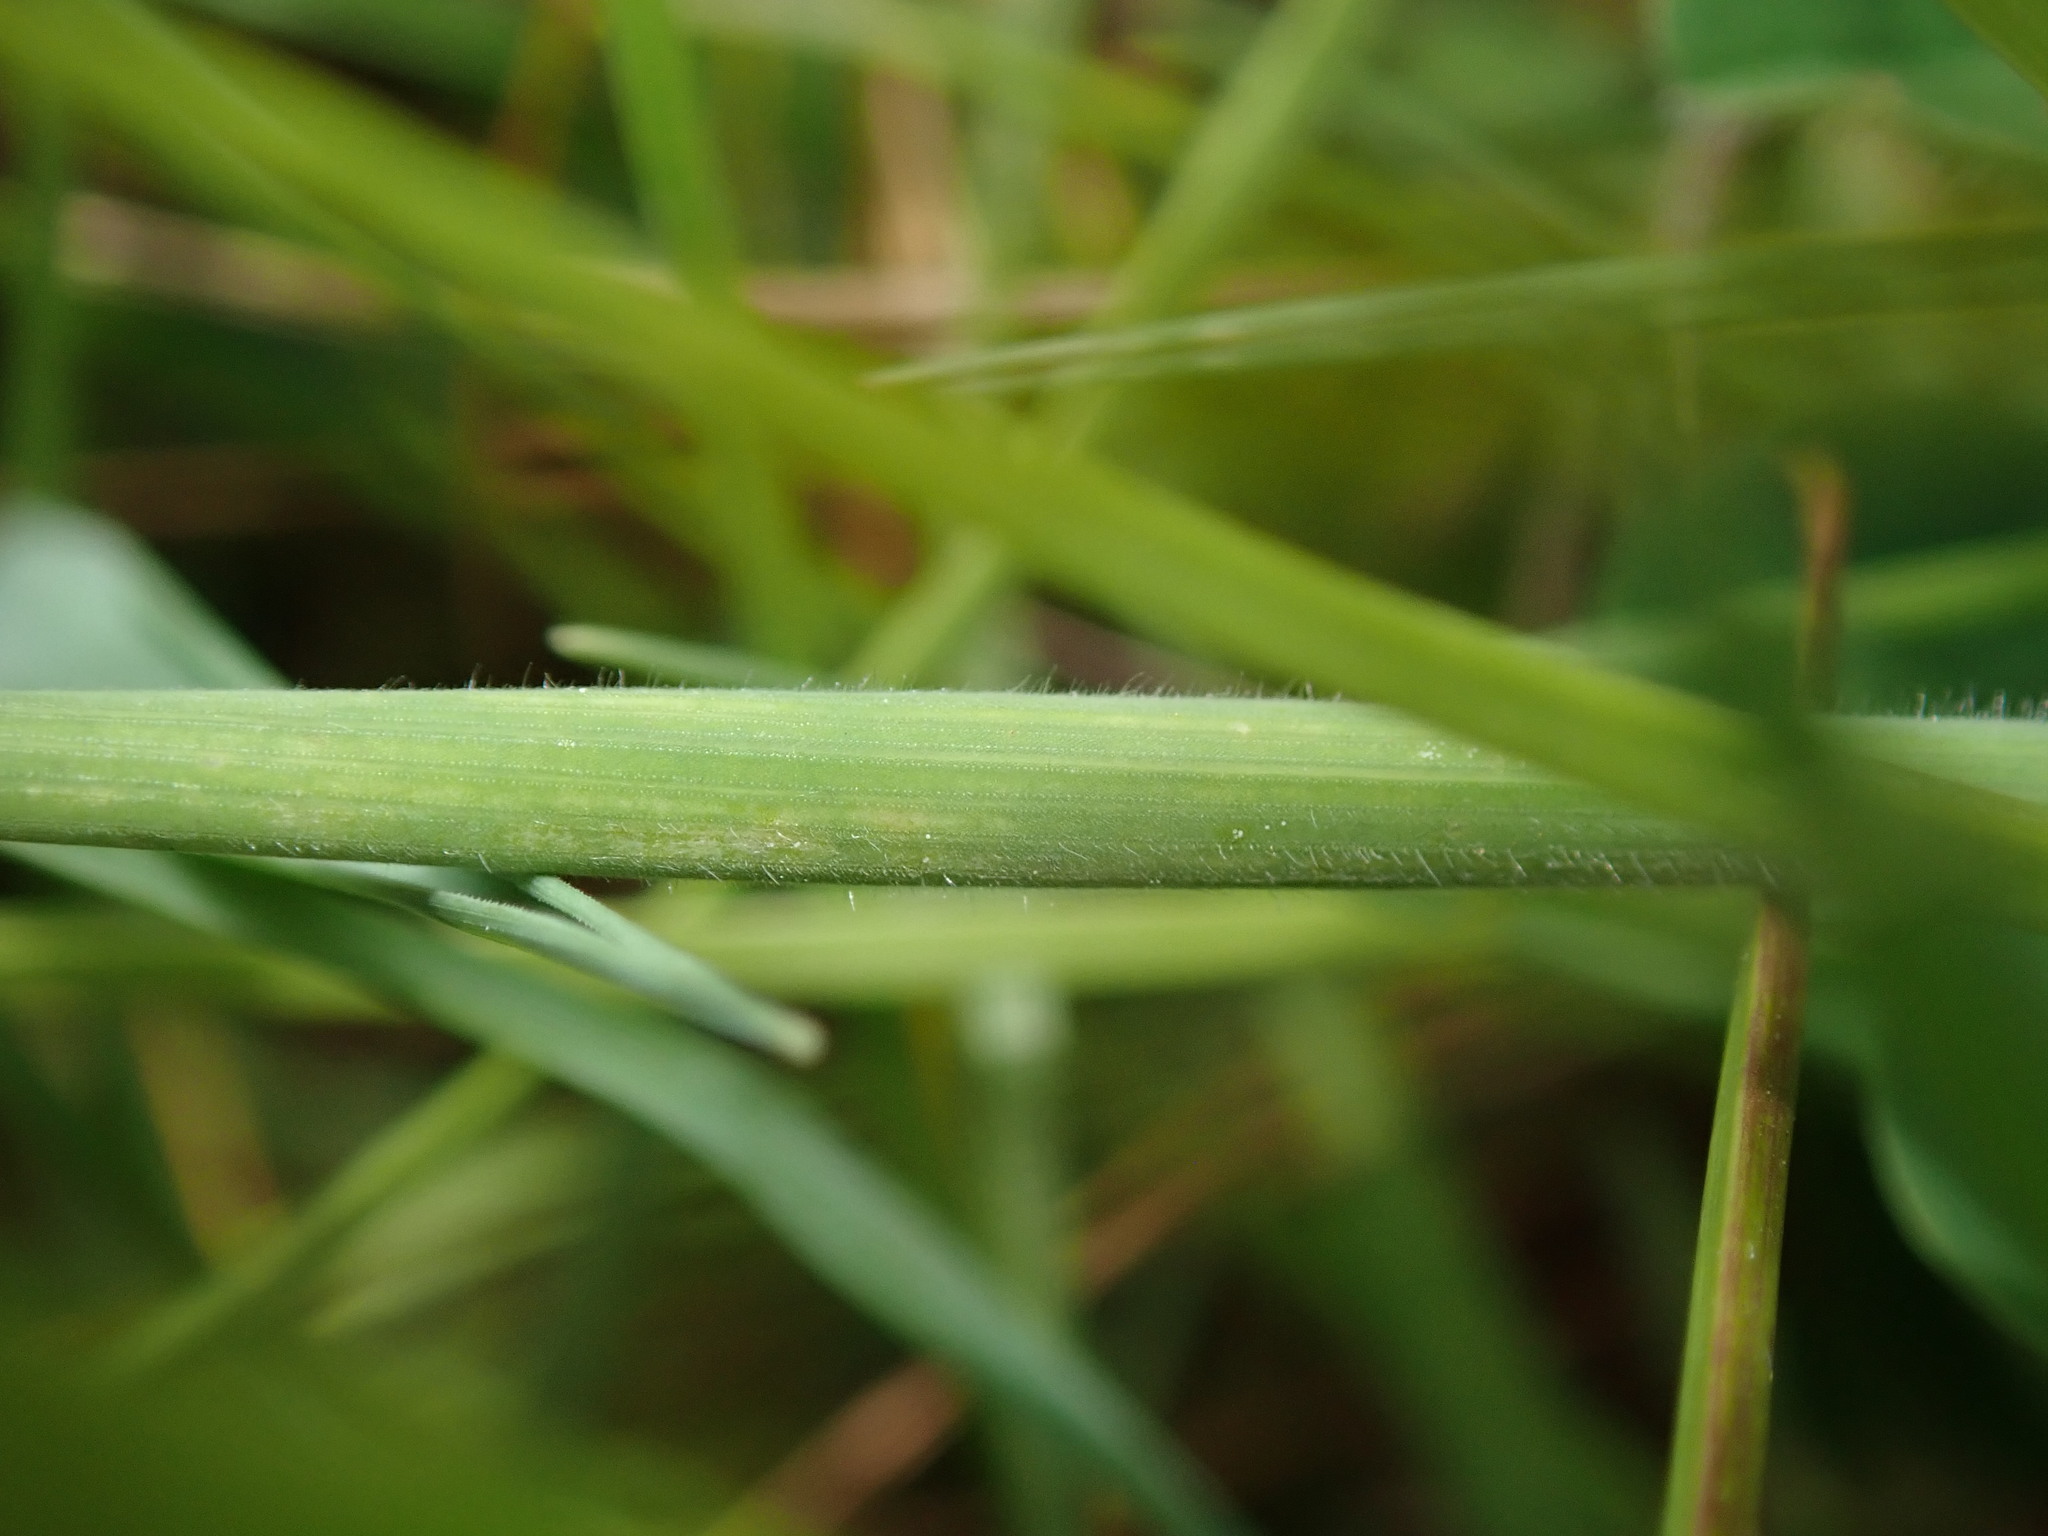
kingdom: Plantae
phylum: Tracheophyta
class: Liliopsida
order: Poales
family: Poaceae
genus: Holcus
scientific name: Holcus lanatus
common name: Yorkshire-fog
